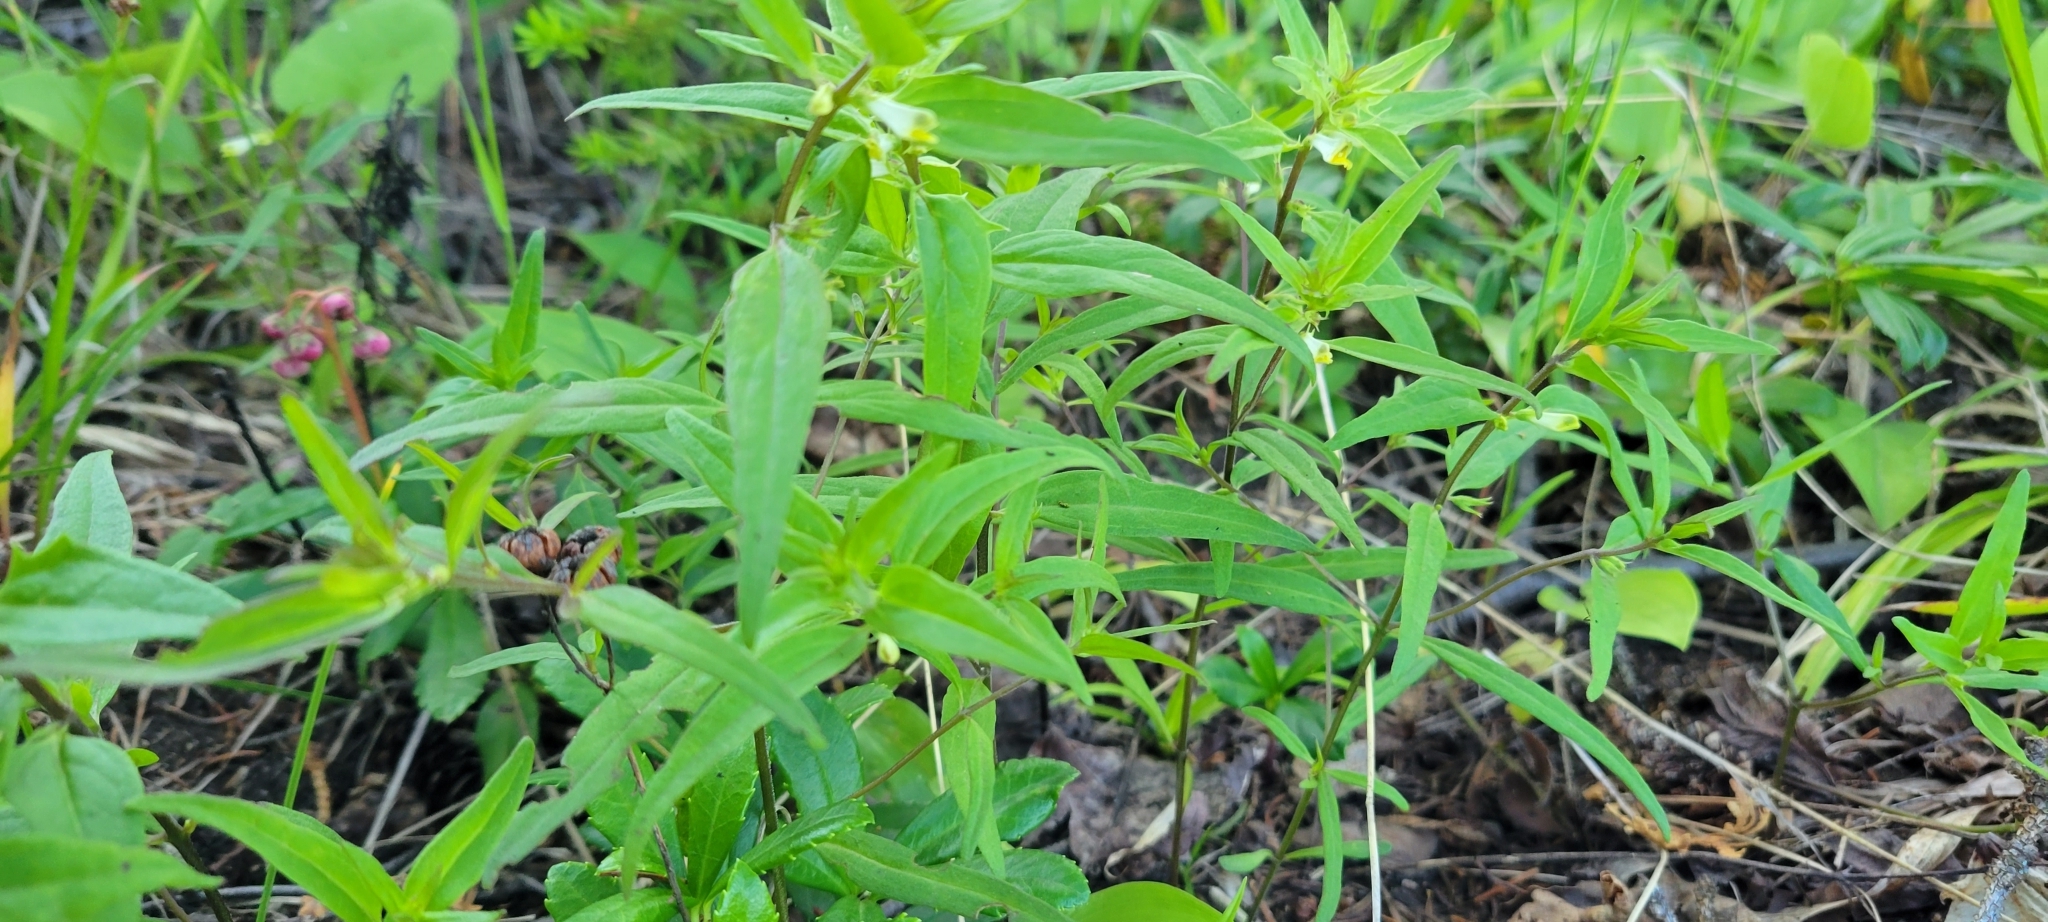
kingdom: Plantae
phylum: Tracheophyta
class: Magnoliopsida
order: Lamiales
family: Orobanchaceae
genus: Melampyrum
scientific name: Melampyrum lineare
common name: American cow-wheat
